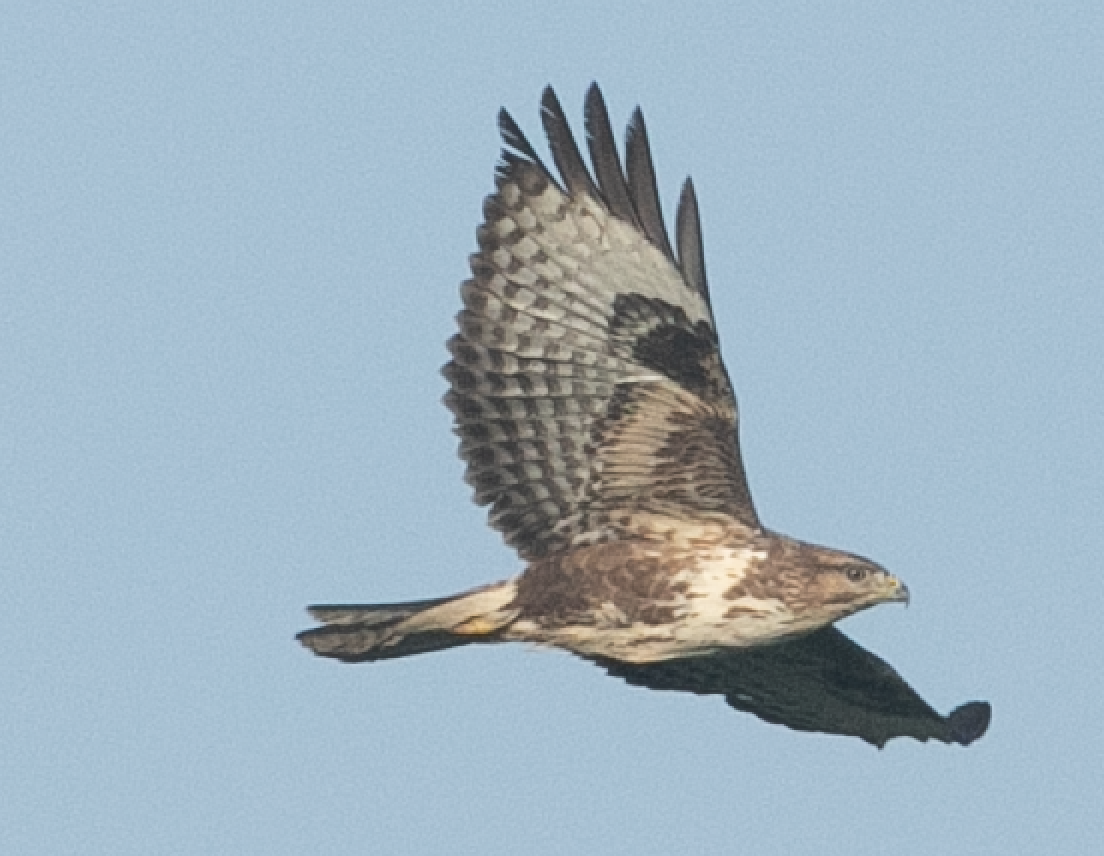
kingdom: Animalia
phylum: Chordata
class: Aves
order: Accipitriformes
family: Accipitridae
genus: Buteo
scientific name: Buteo buteo
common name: Common buzzard
